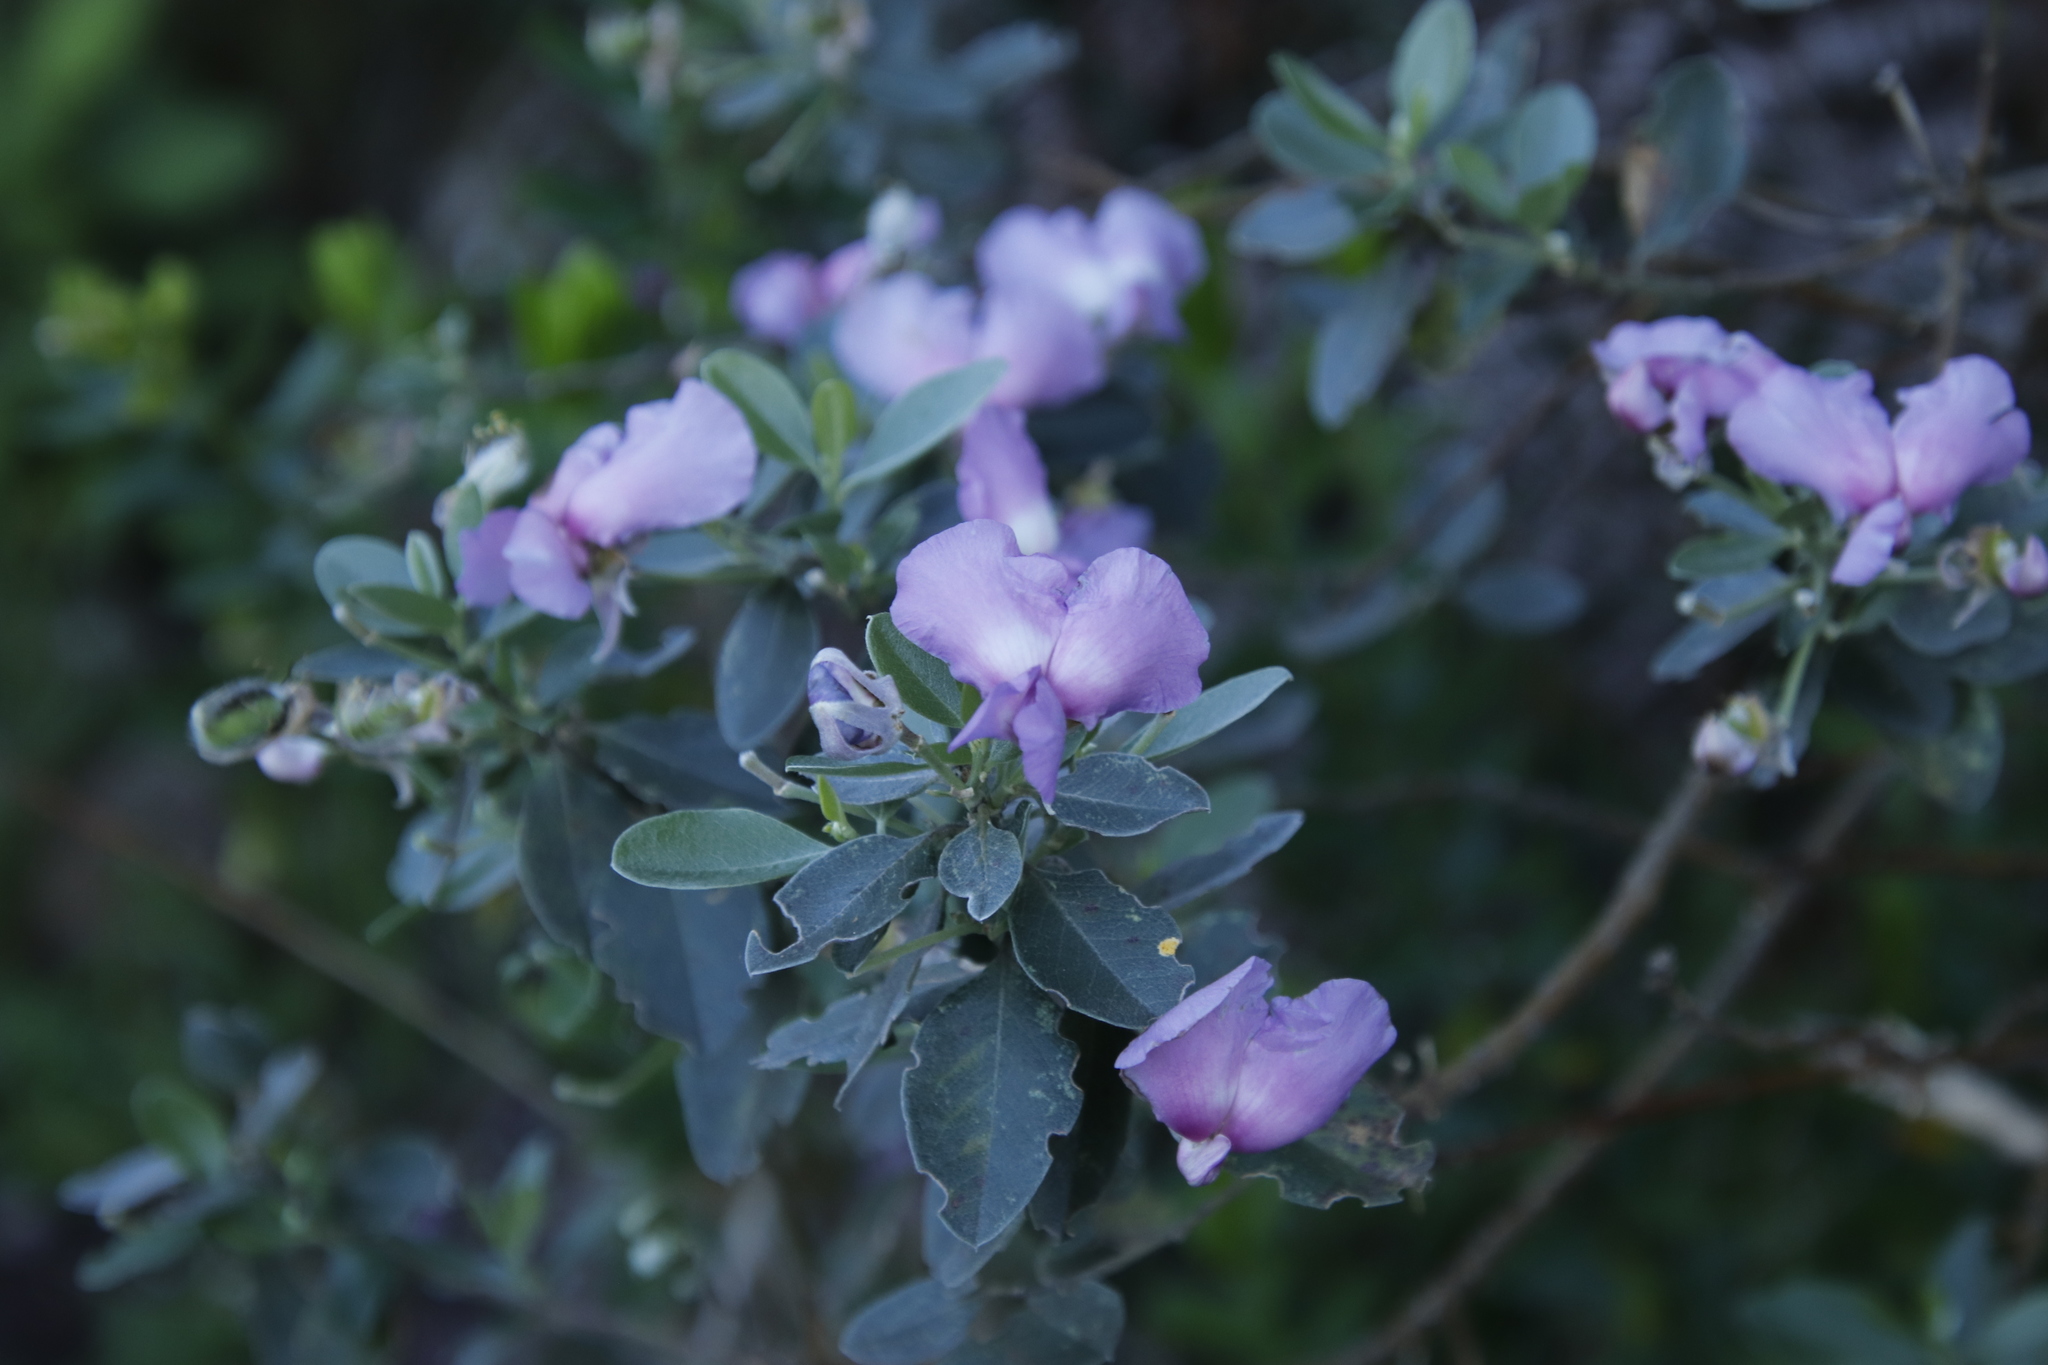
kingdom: Plantae
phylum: Tracheophyta
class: Magnoliopsida
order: Fabales
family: Fabaceae
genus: Podalyria
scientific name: Podalyria calyptrata
